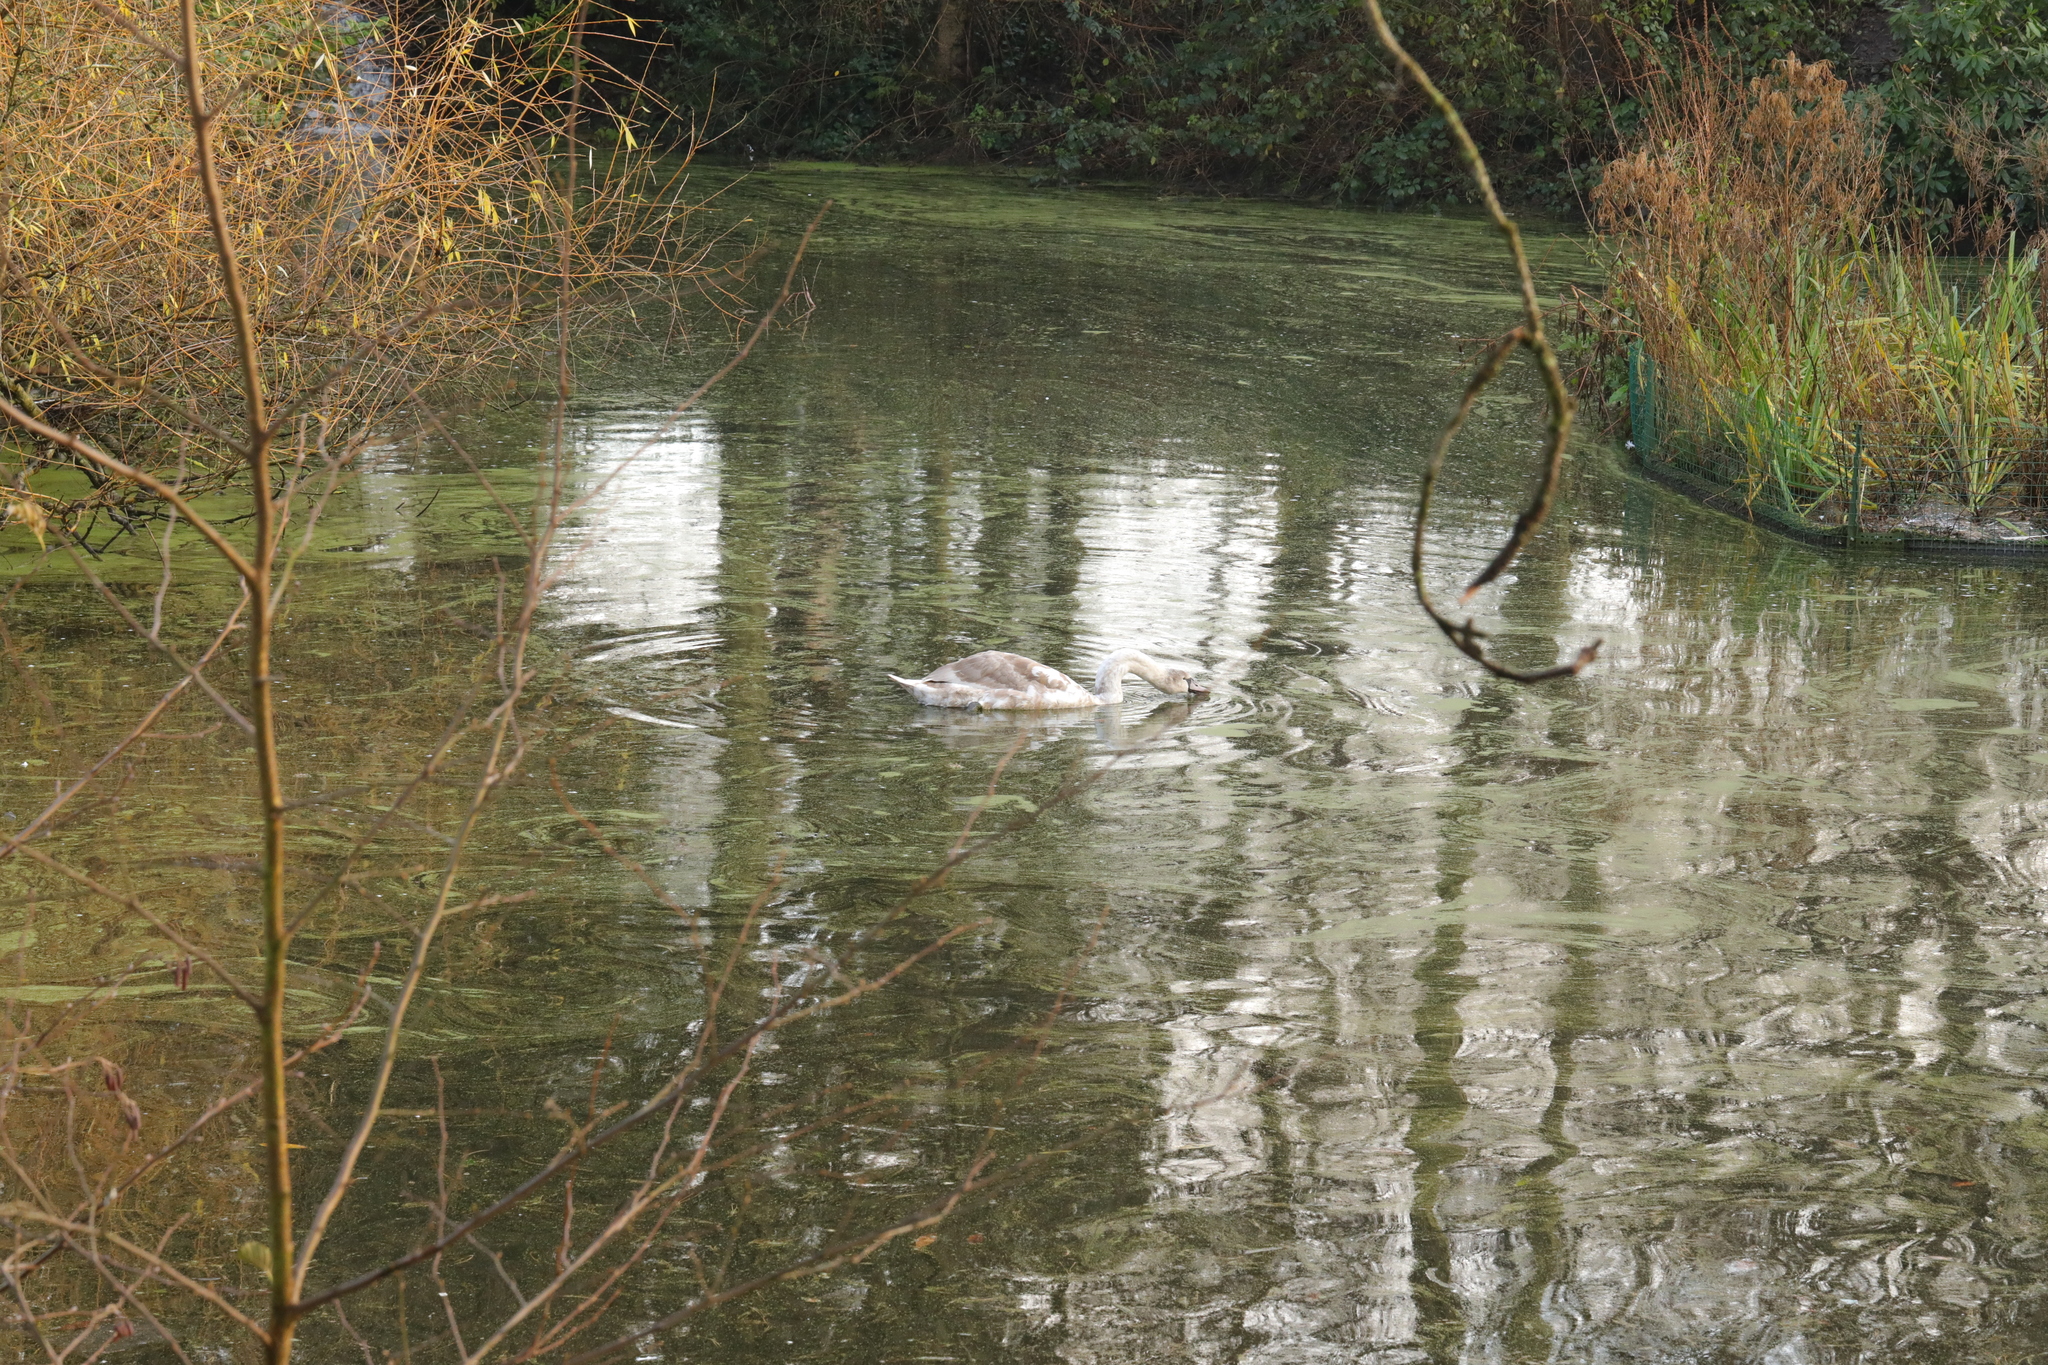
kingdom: Animalia
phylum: Chordata
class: Aves
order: Anseriformes
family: Anatidae
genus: Cygnus
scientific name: Cygnus olor
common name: Mute swan
